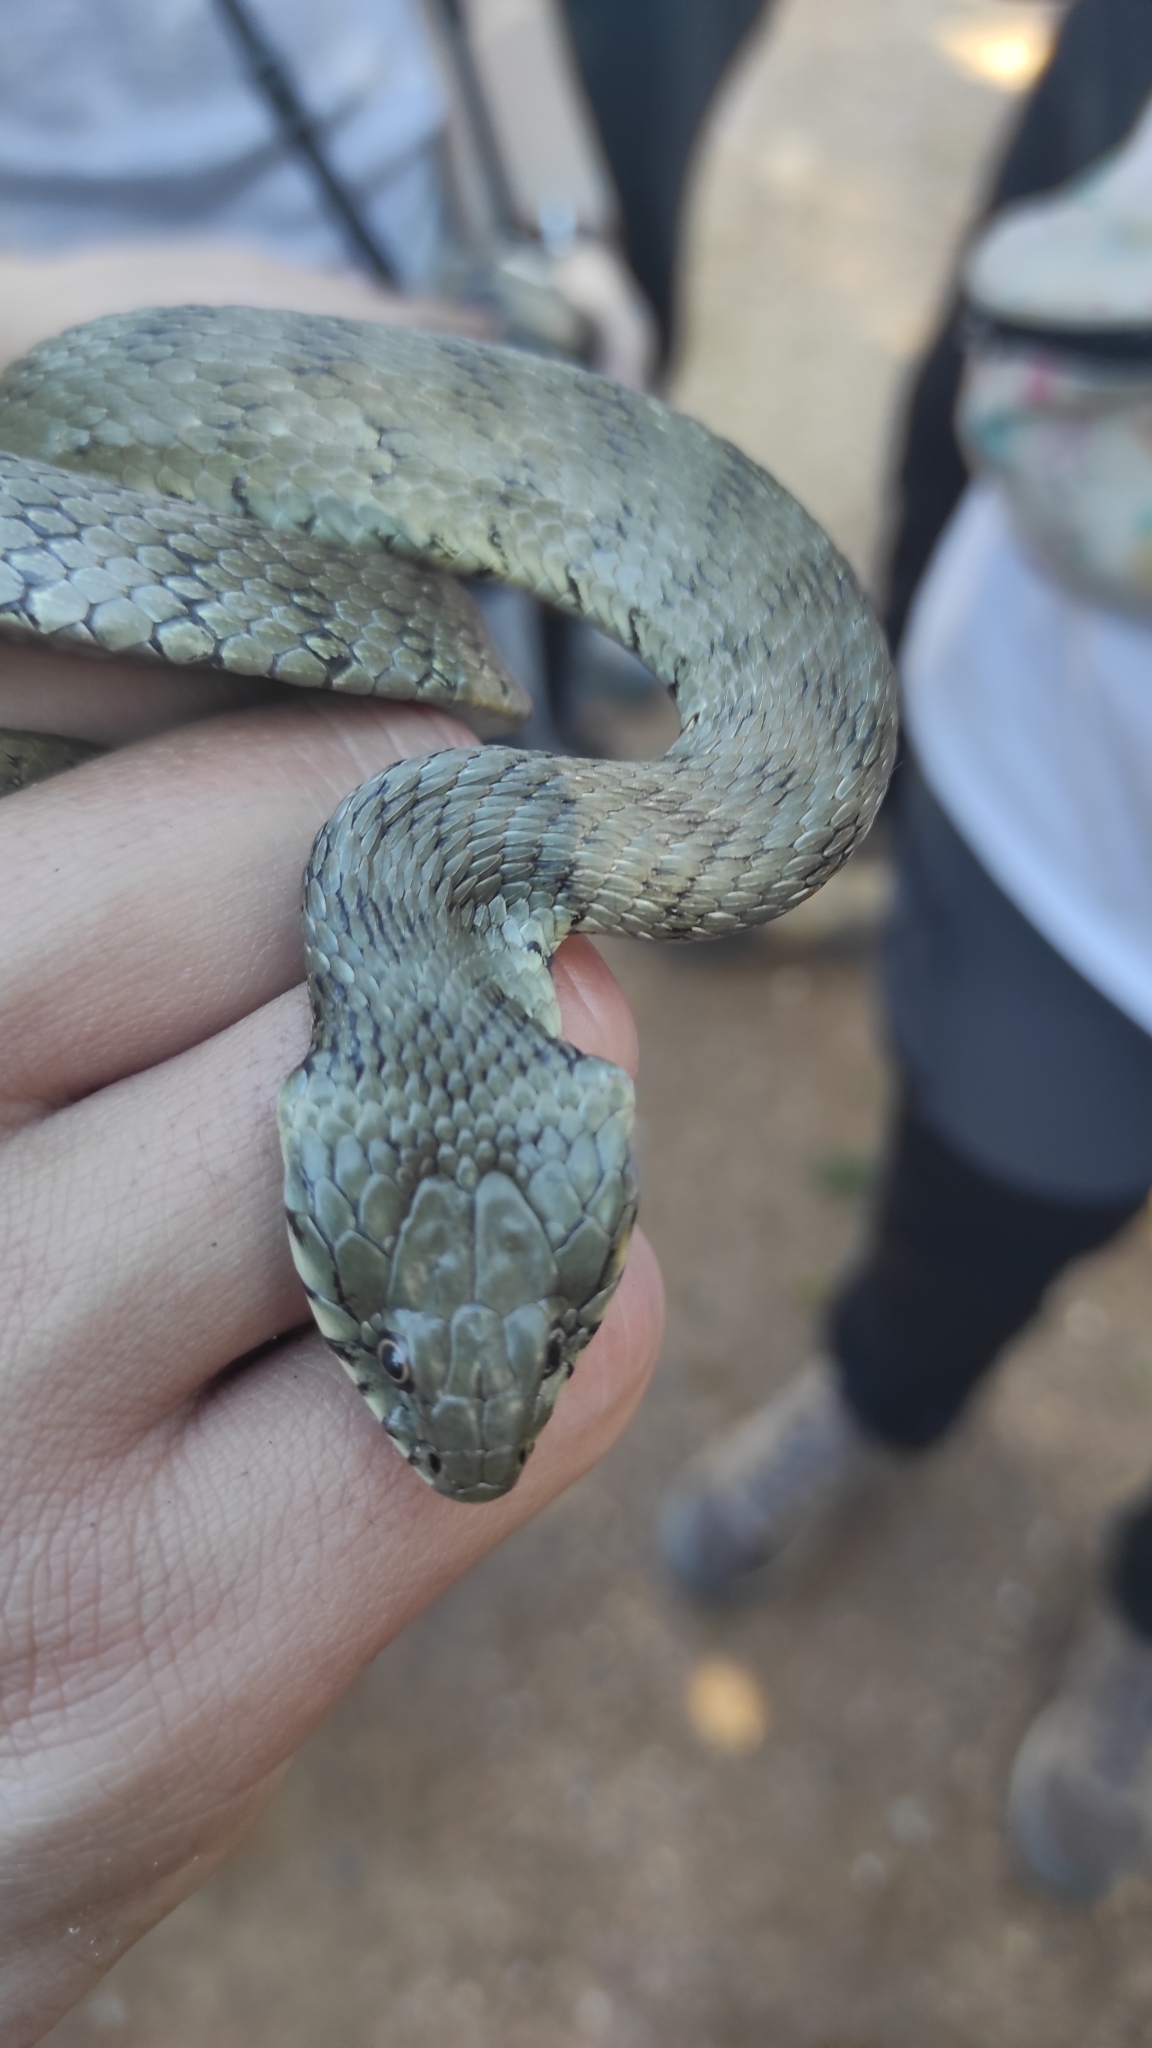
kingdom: Animalia
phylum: Chordata
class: Squamata
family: Colubridae
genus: Natrix
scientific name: Natrix astreptophora
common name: Red-eyed grass snake
